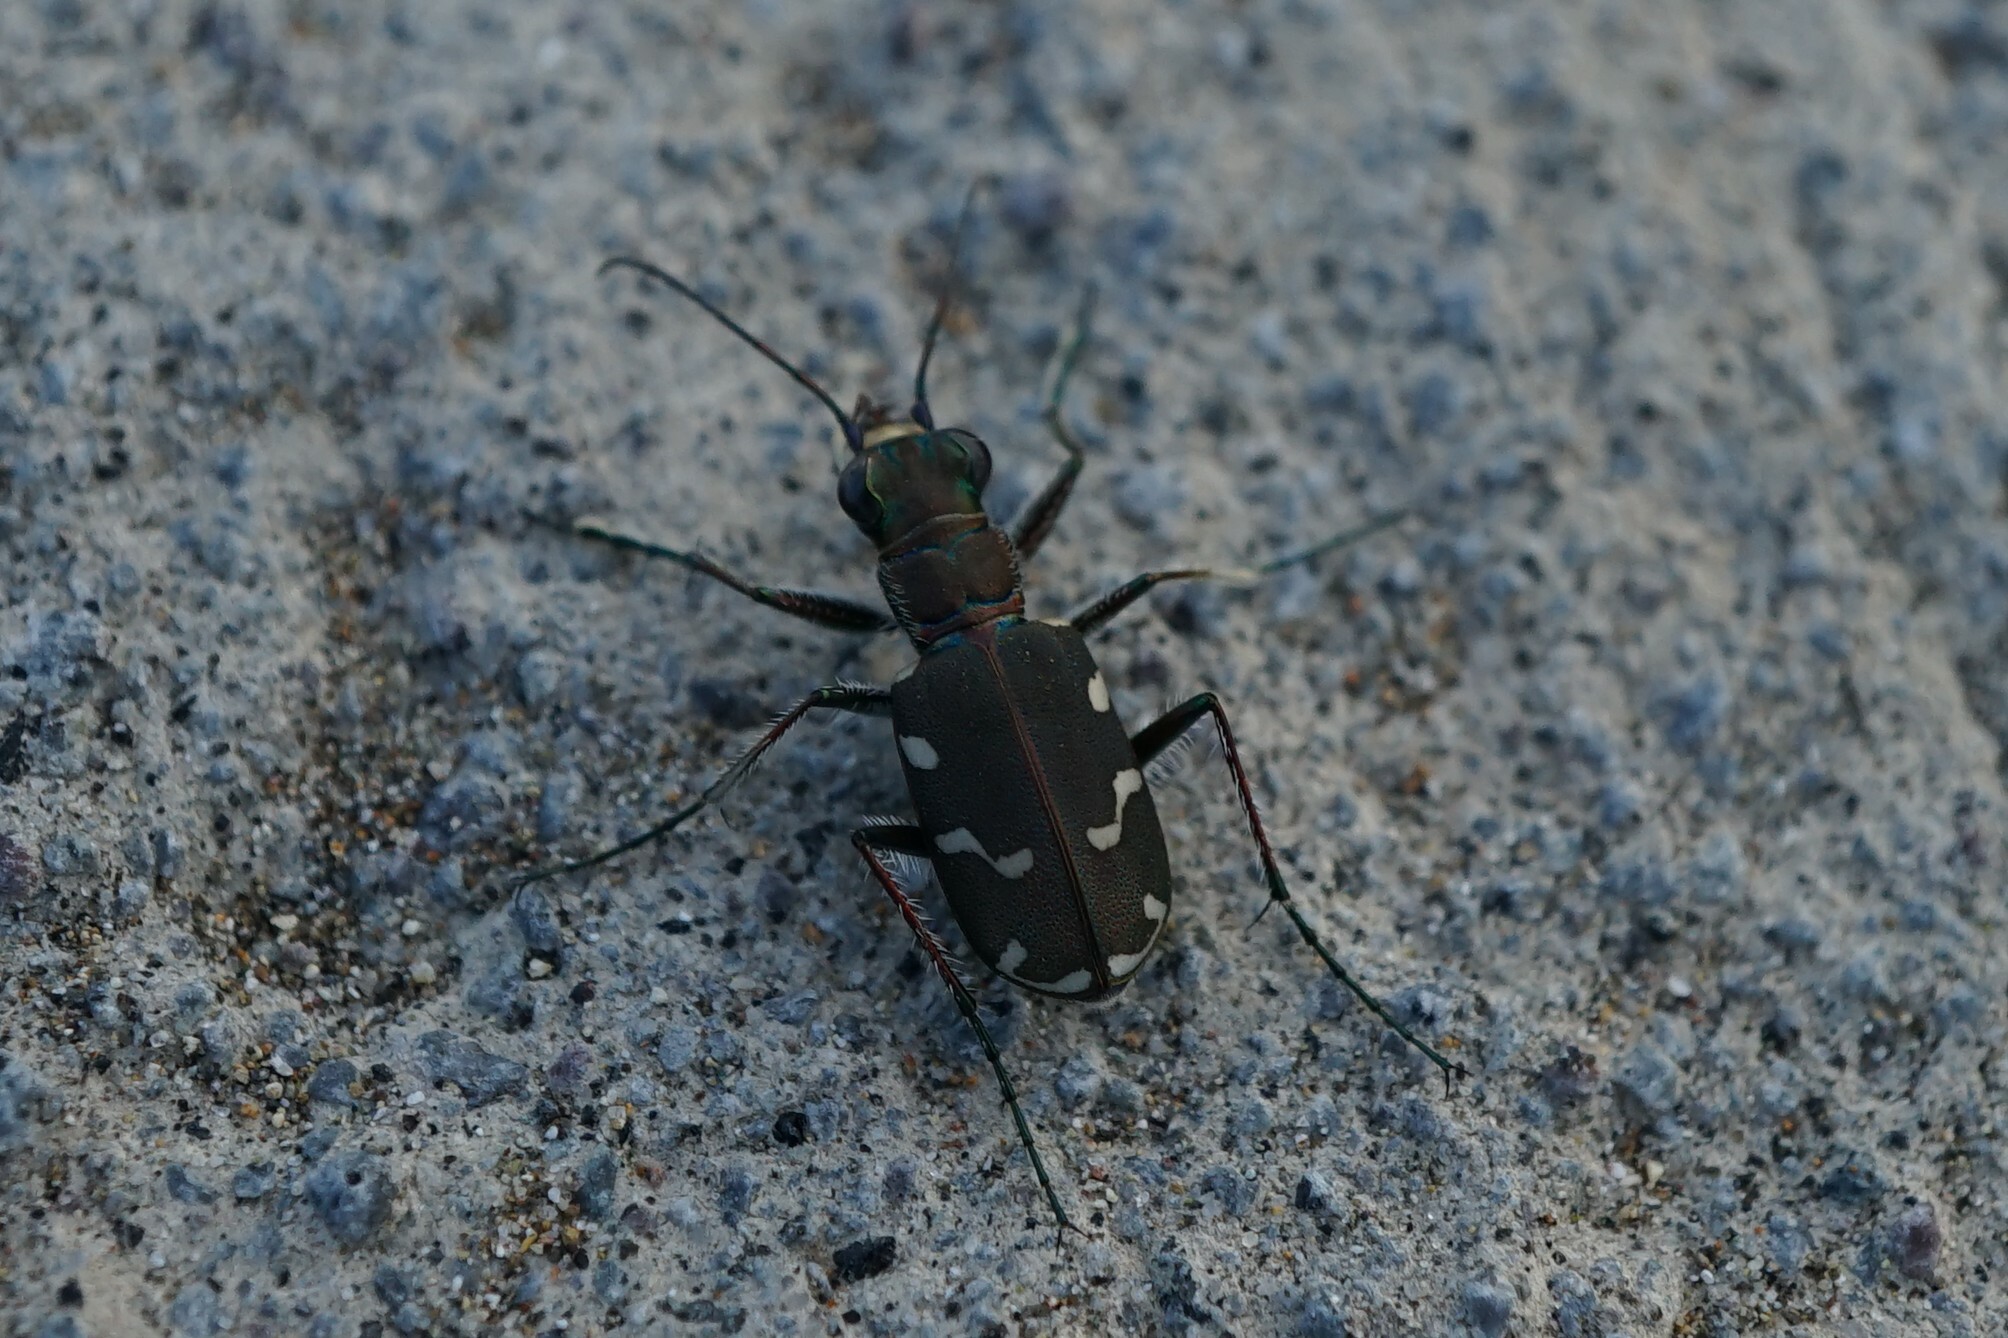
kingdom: Animalia
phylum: Arthropoda
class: Insecta
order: Coleoptera
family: Carabidae
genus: Cicindela
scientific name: Cicindela transbaicalica
